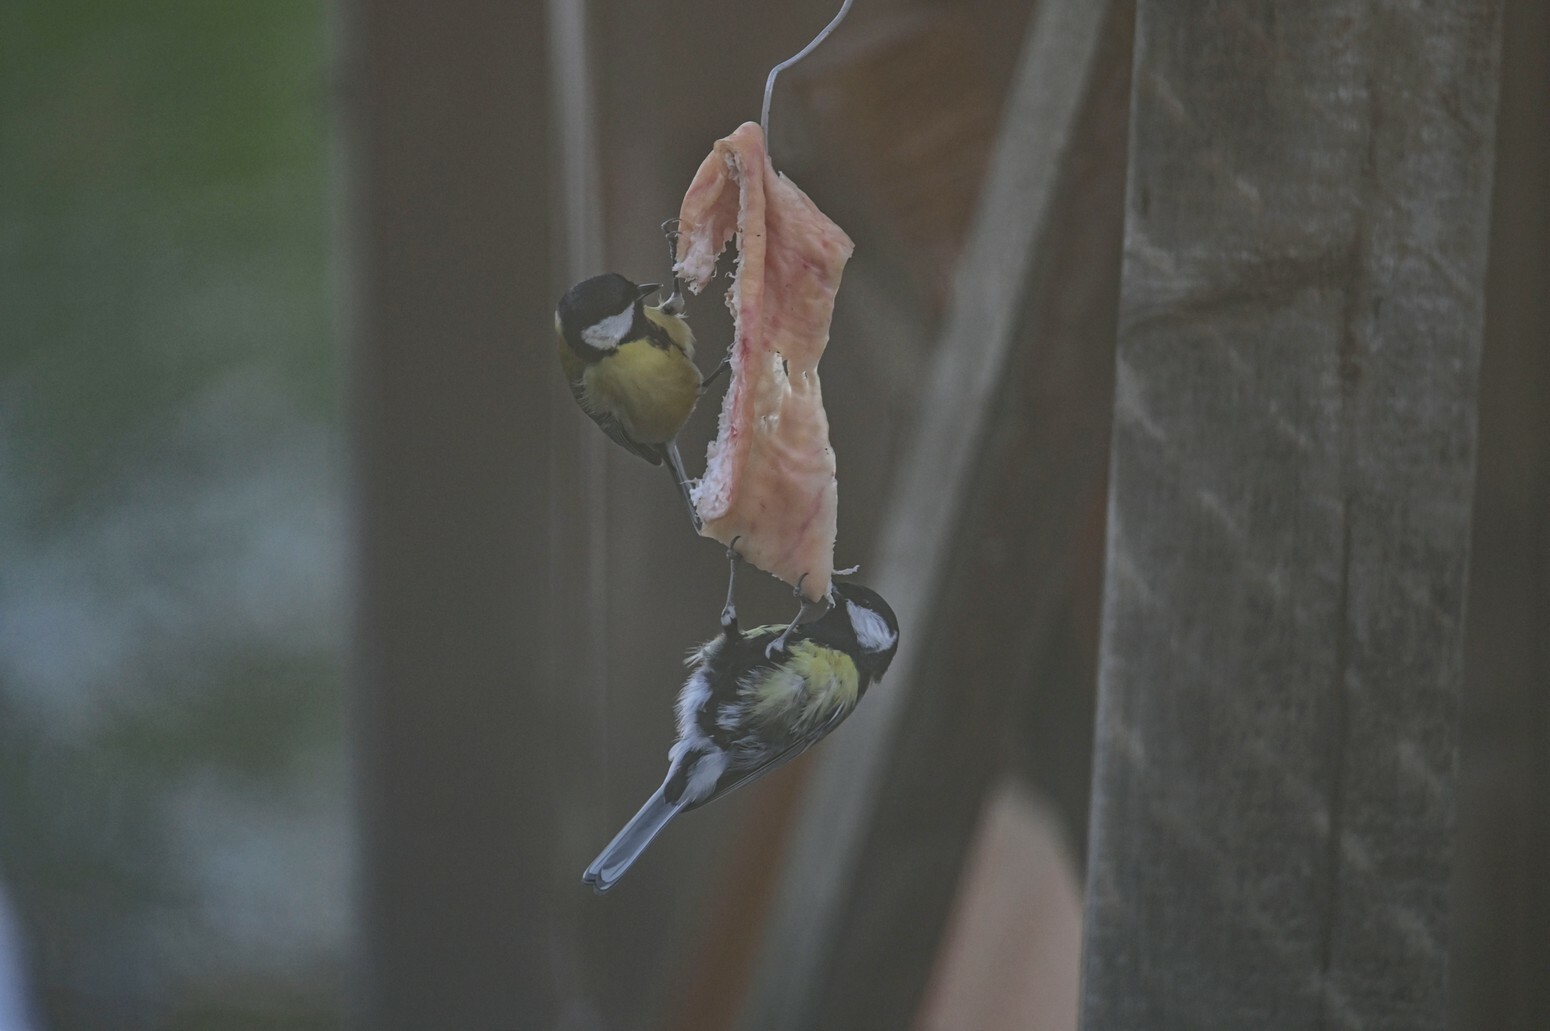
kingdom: Animalia
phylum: Chordata
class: Aves
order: Passeriformes
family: Paridae
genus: Parus
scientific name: Parus major
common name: Great tit
